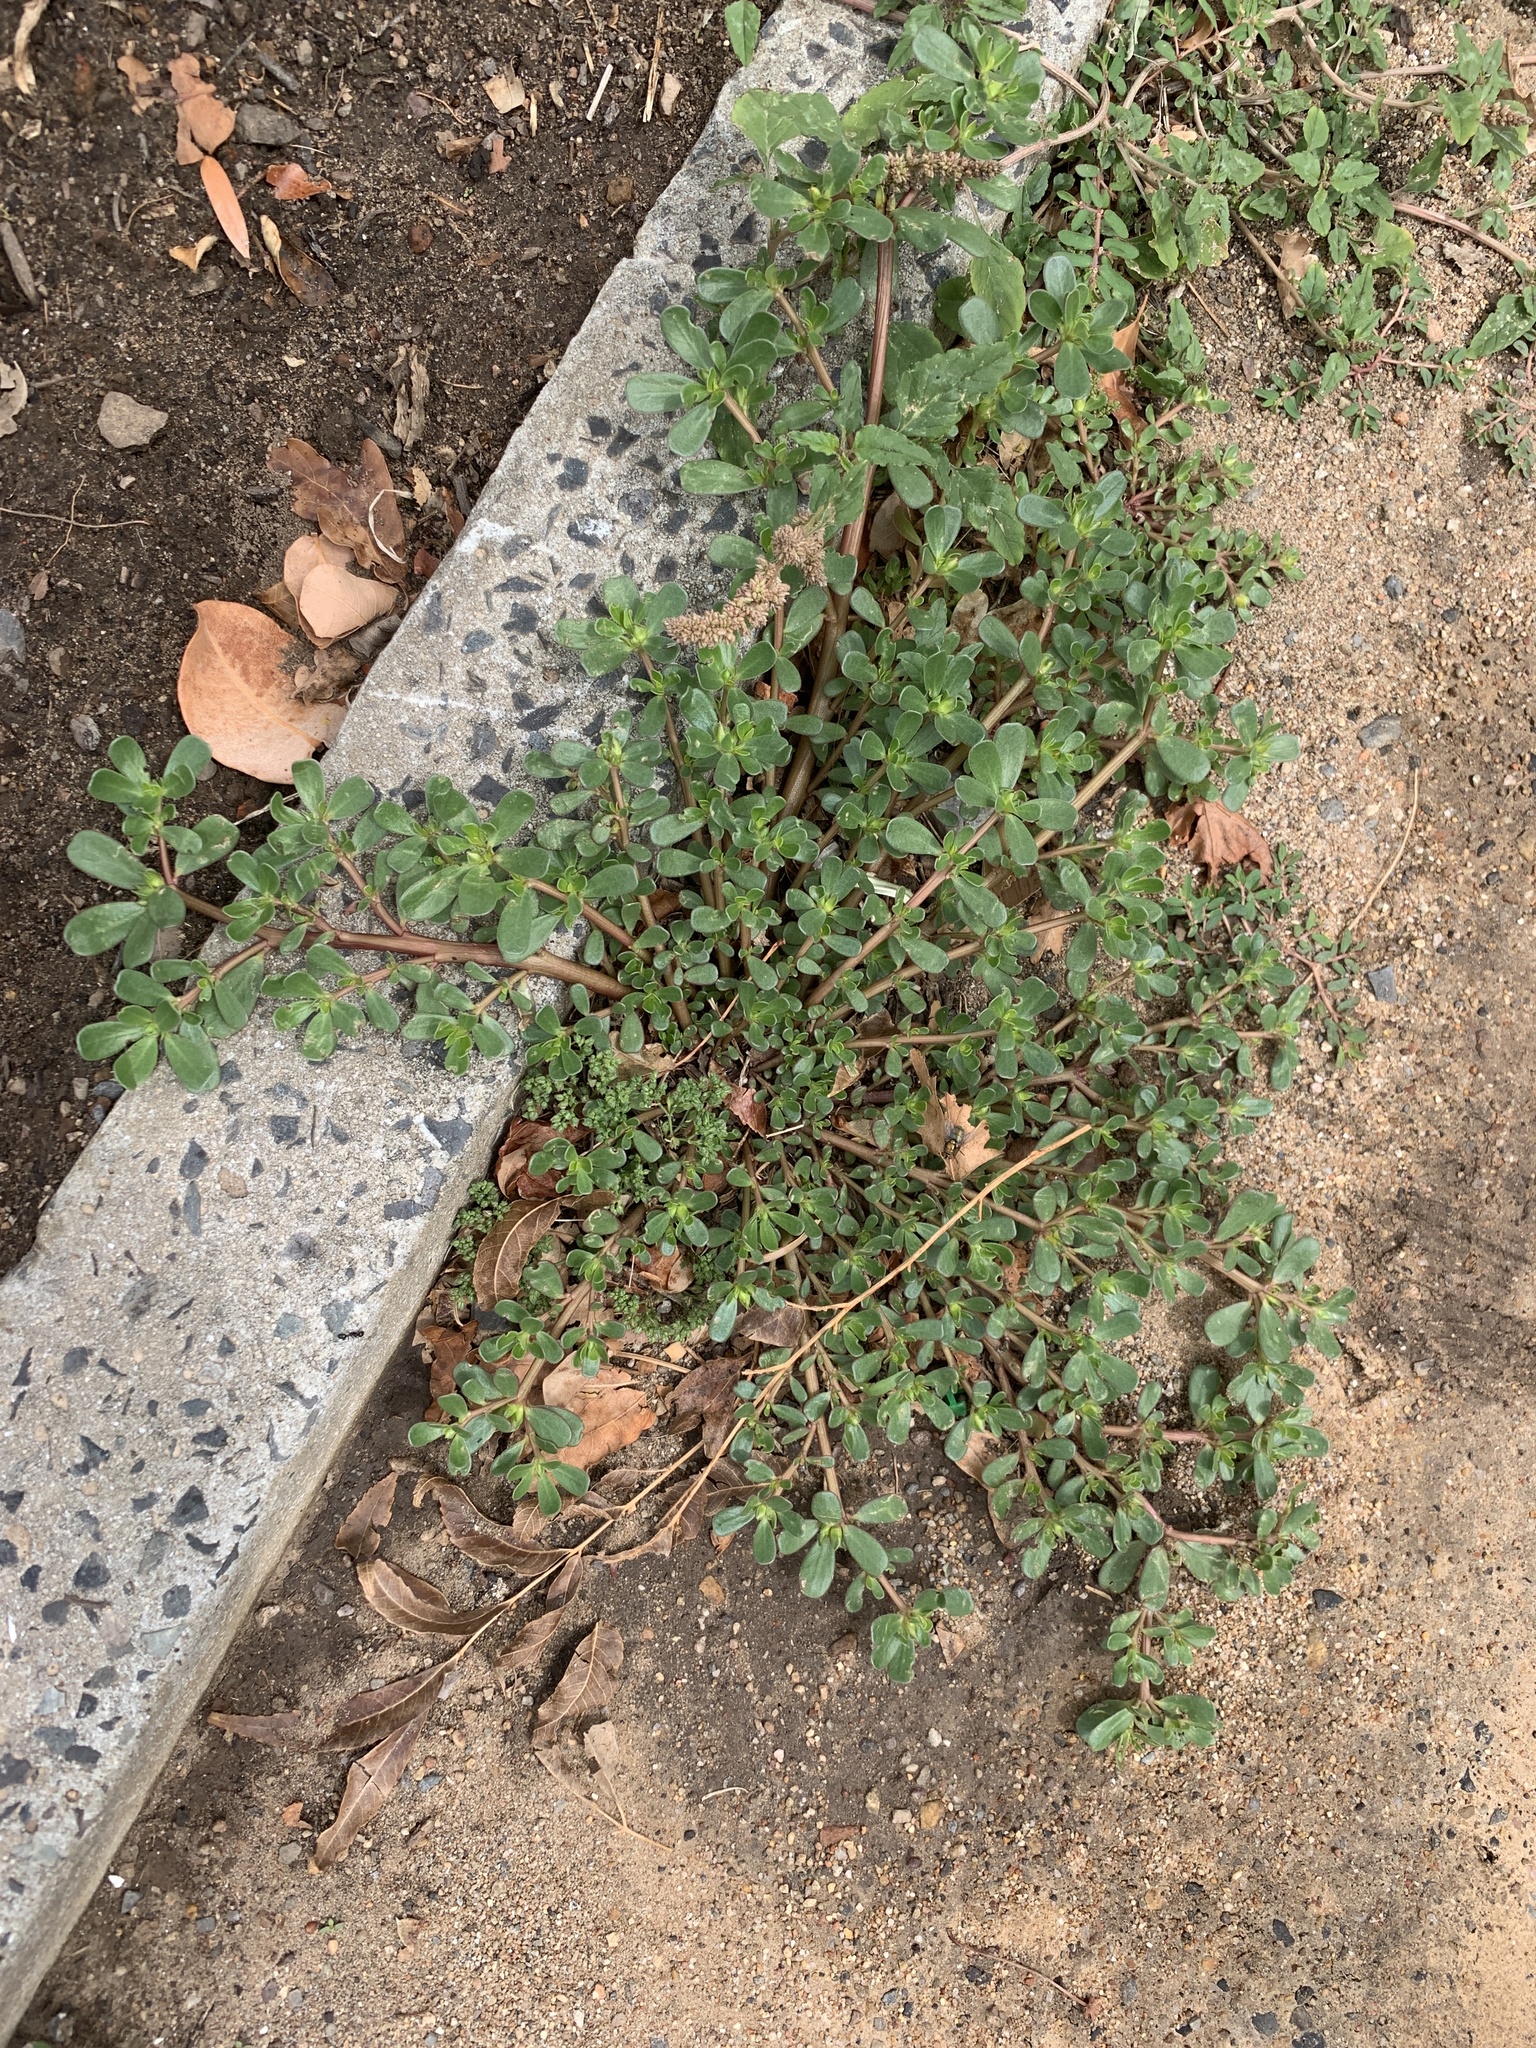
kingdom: Plantae
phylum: Tracheophyta
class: Magnoliopsida
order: Caryophyllales
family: Portulacaceae
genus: Portulaca
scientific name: Portulaca oleracea
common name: Common purslane
